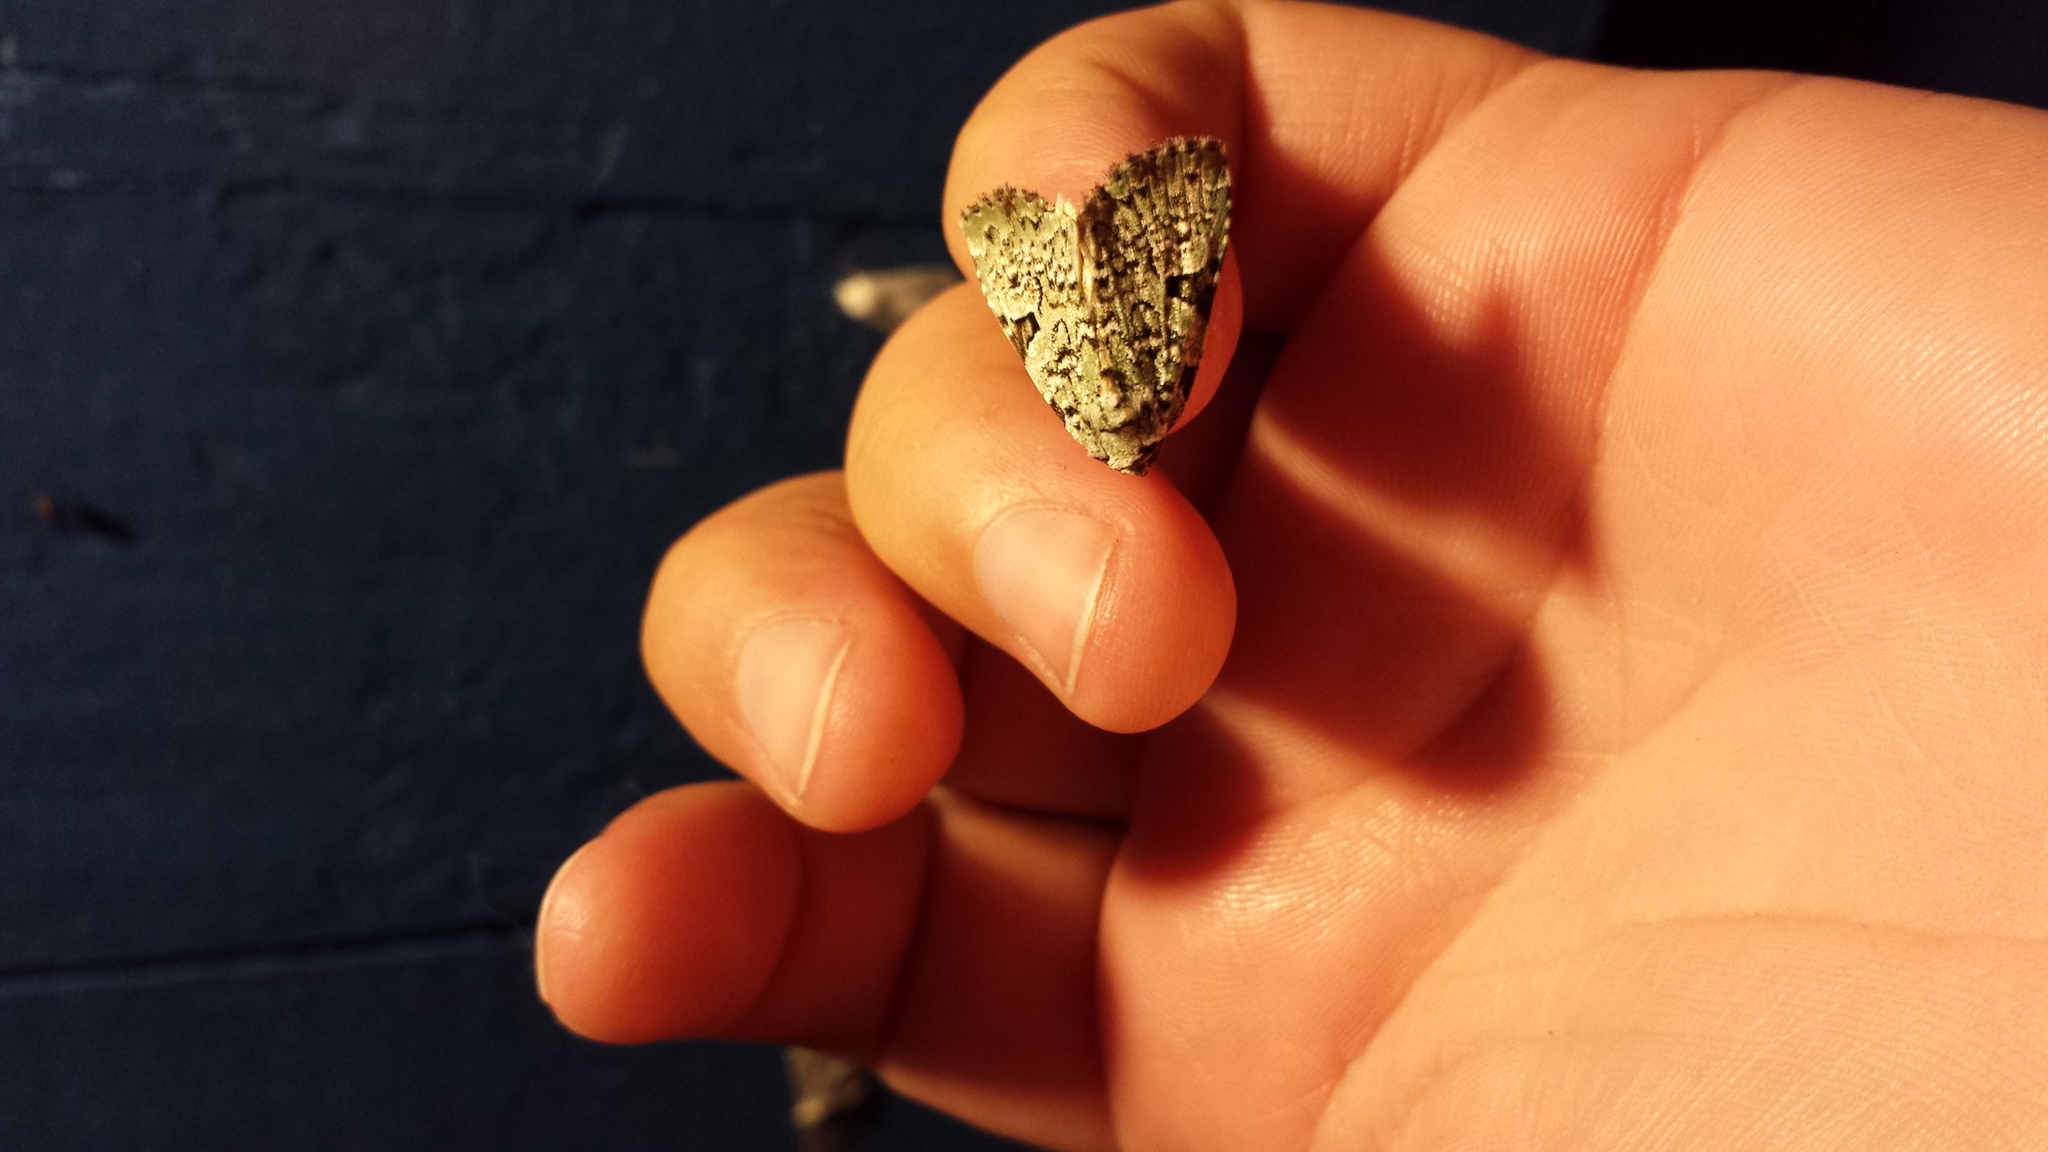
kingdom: Animalia
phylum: Arthropoda
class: Insecta
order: Lepidoptera
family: Noctuidae
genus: Leuconycta
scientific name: Leuconycta diphteroides
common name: Green leuconycta moth
